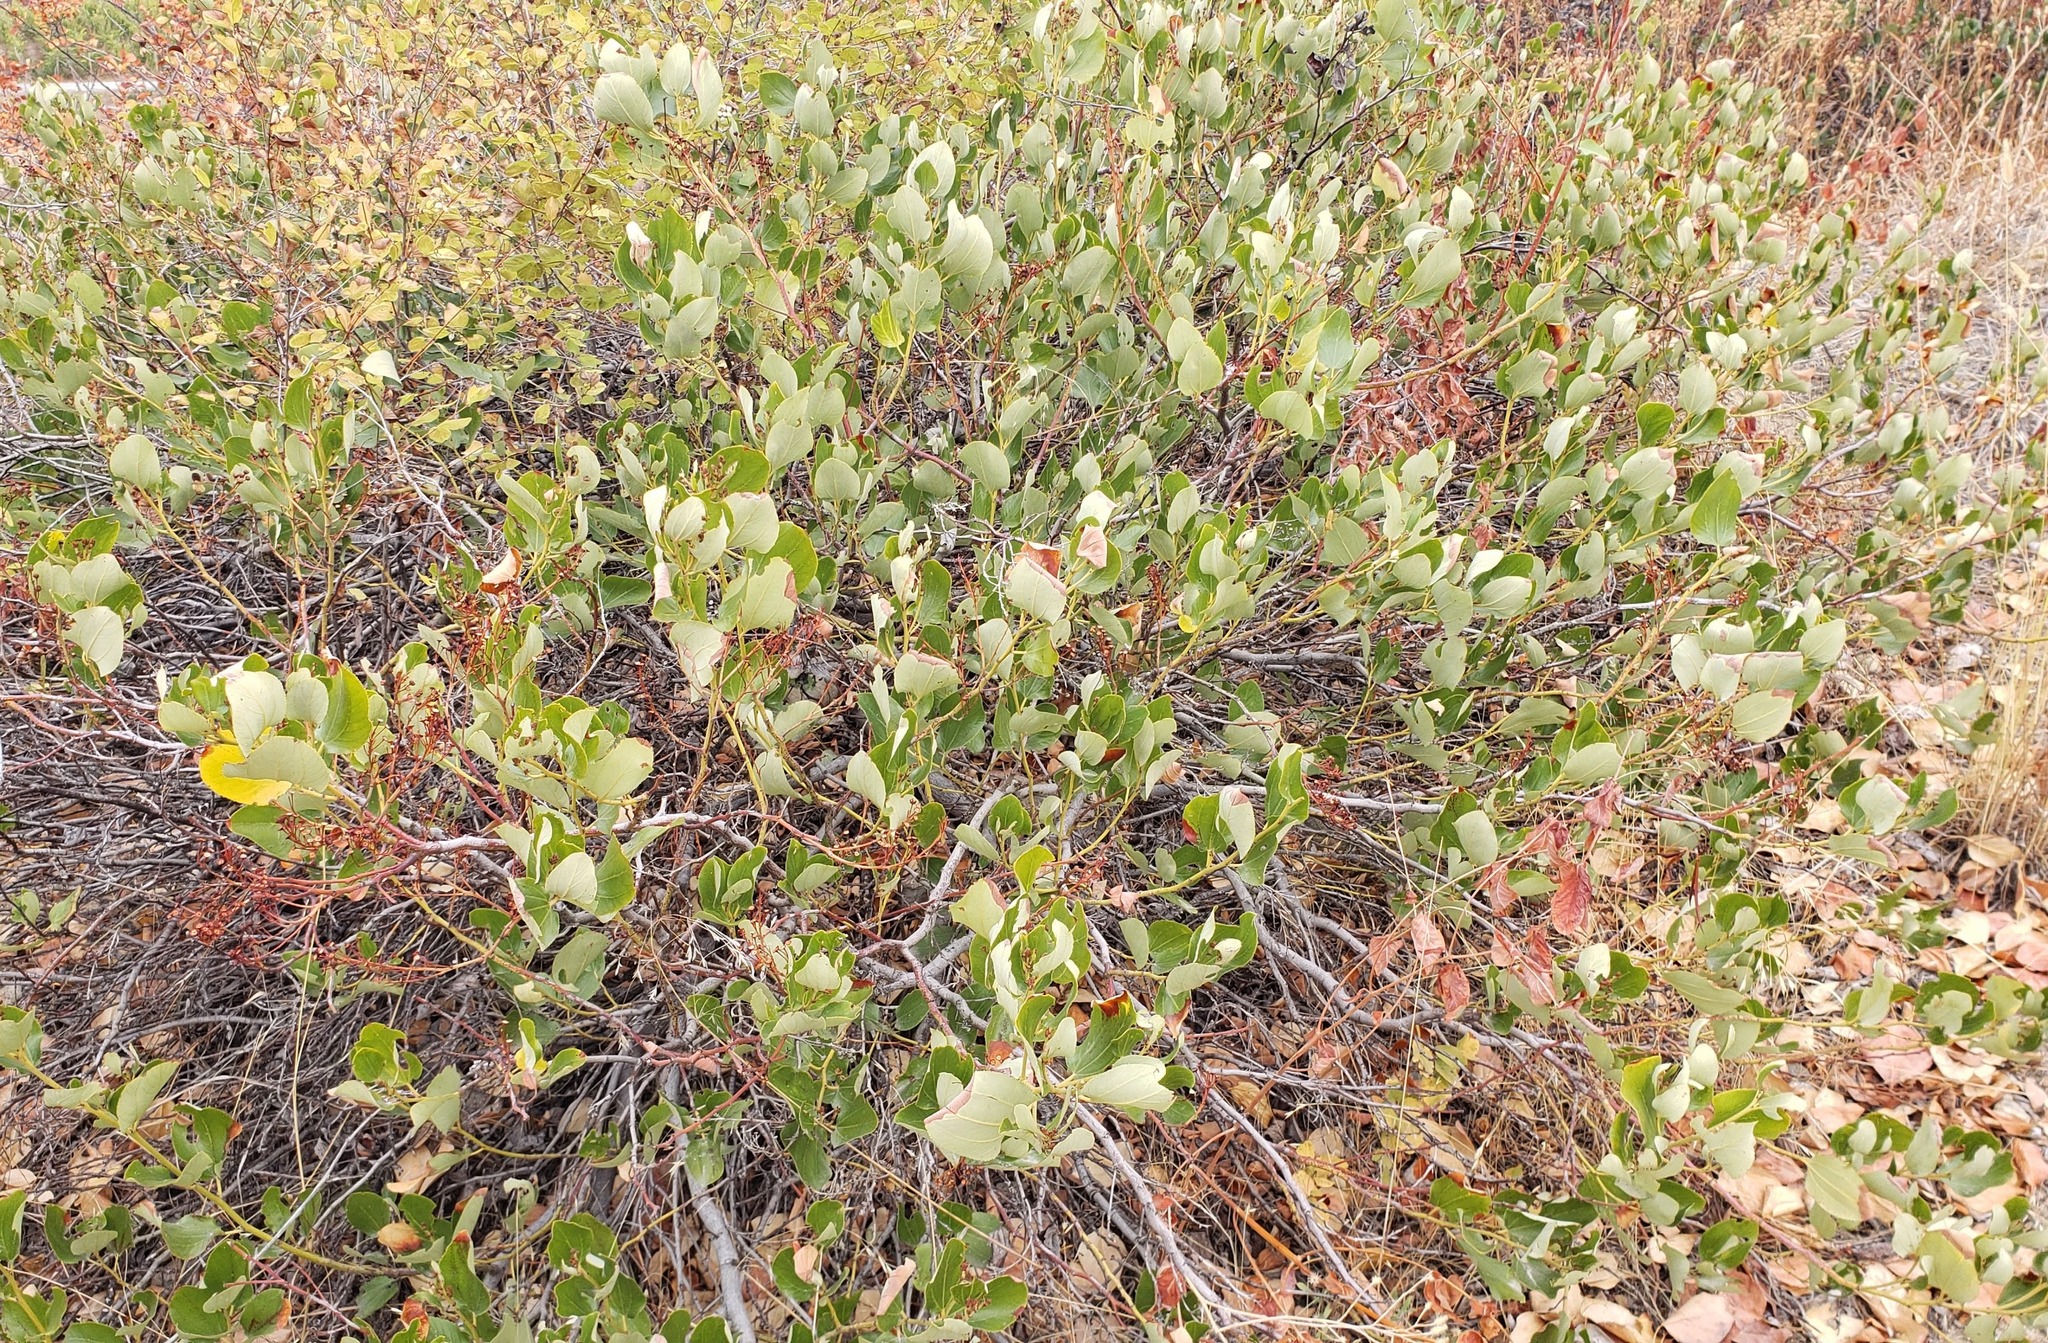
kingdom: Plantae
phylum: Tracheophyta
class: Magnoliopsida
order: Rosales
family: Rhamnaceae
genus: Ceanothus
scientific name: Ceanothus velutinus
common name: Snowbrush
